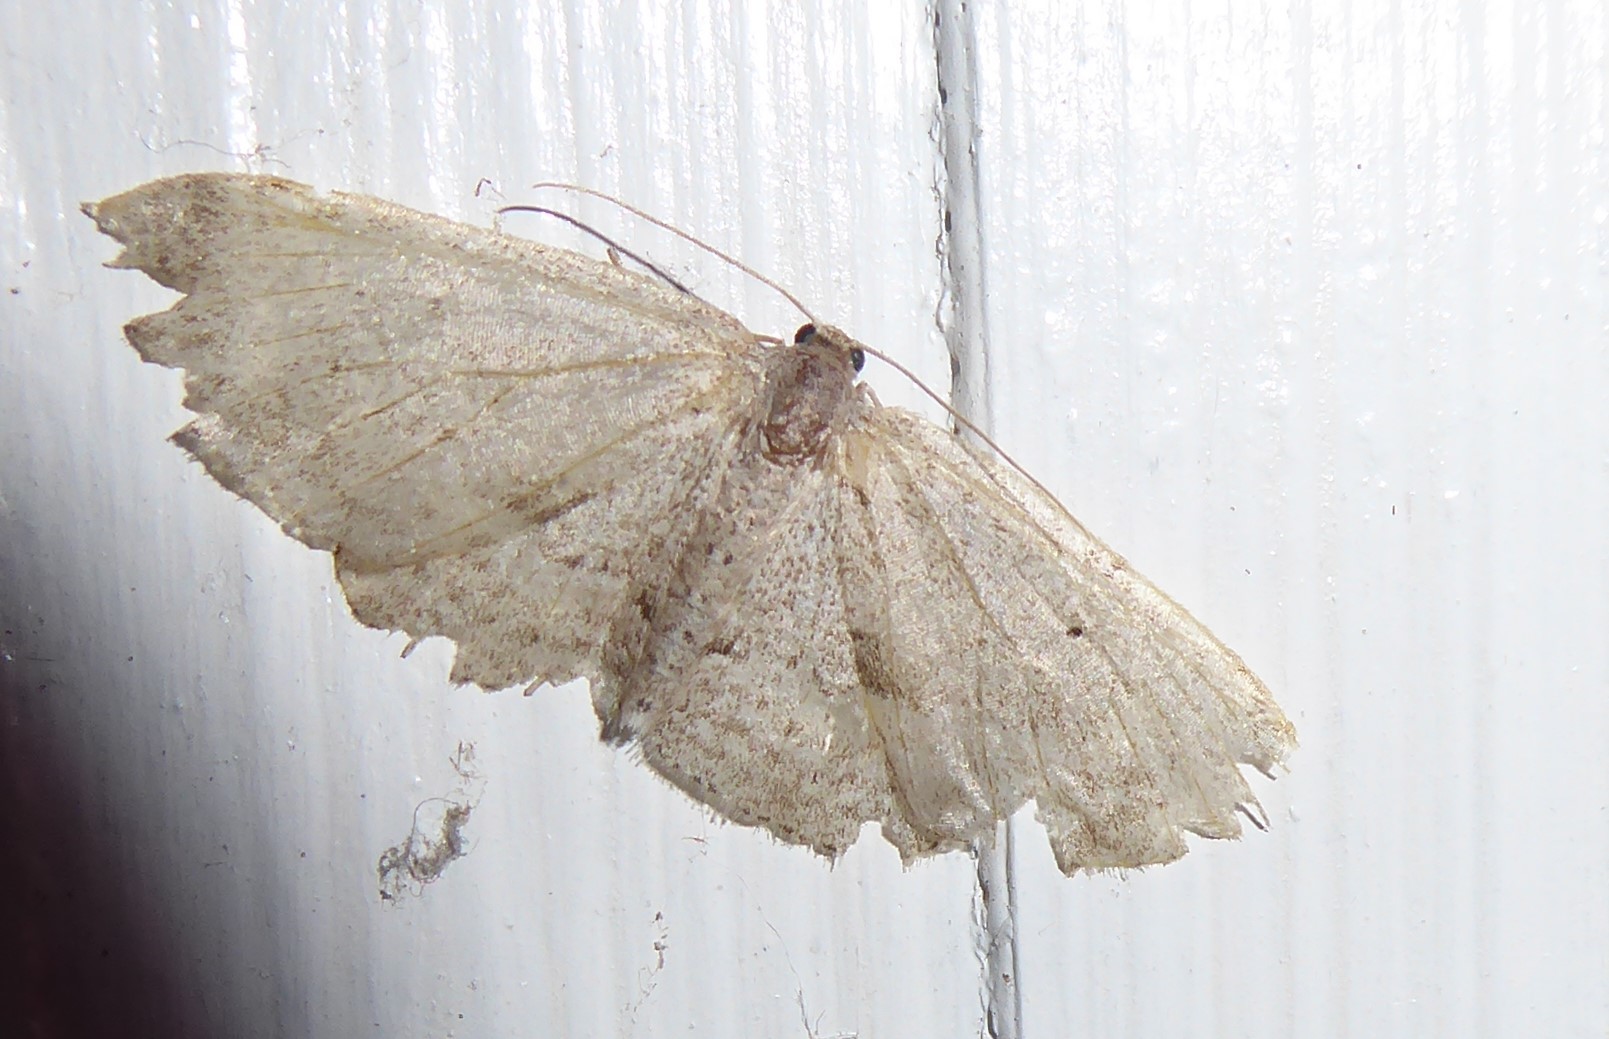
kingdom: Animalia
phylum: Arthropoda
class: Insecta
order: Lepidoptera
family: Geometridae
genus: Poecilasthena
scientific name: Poecilasthena schistaria
